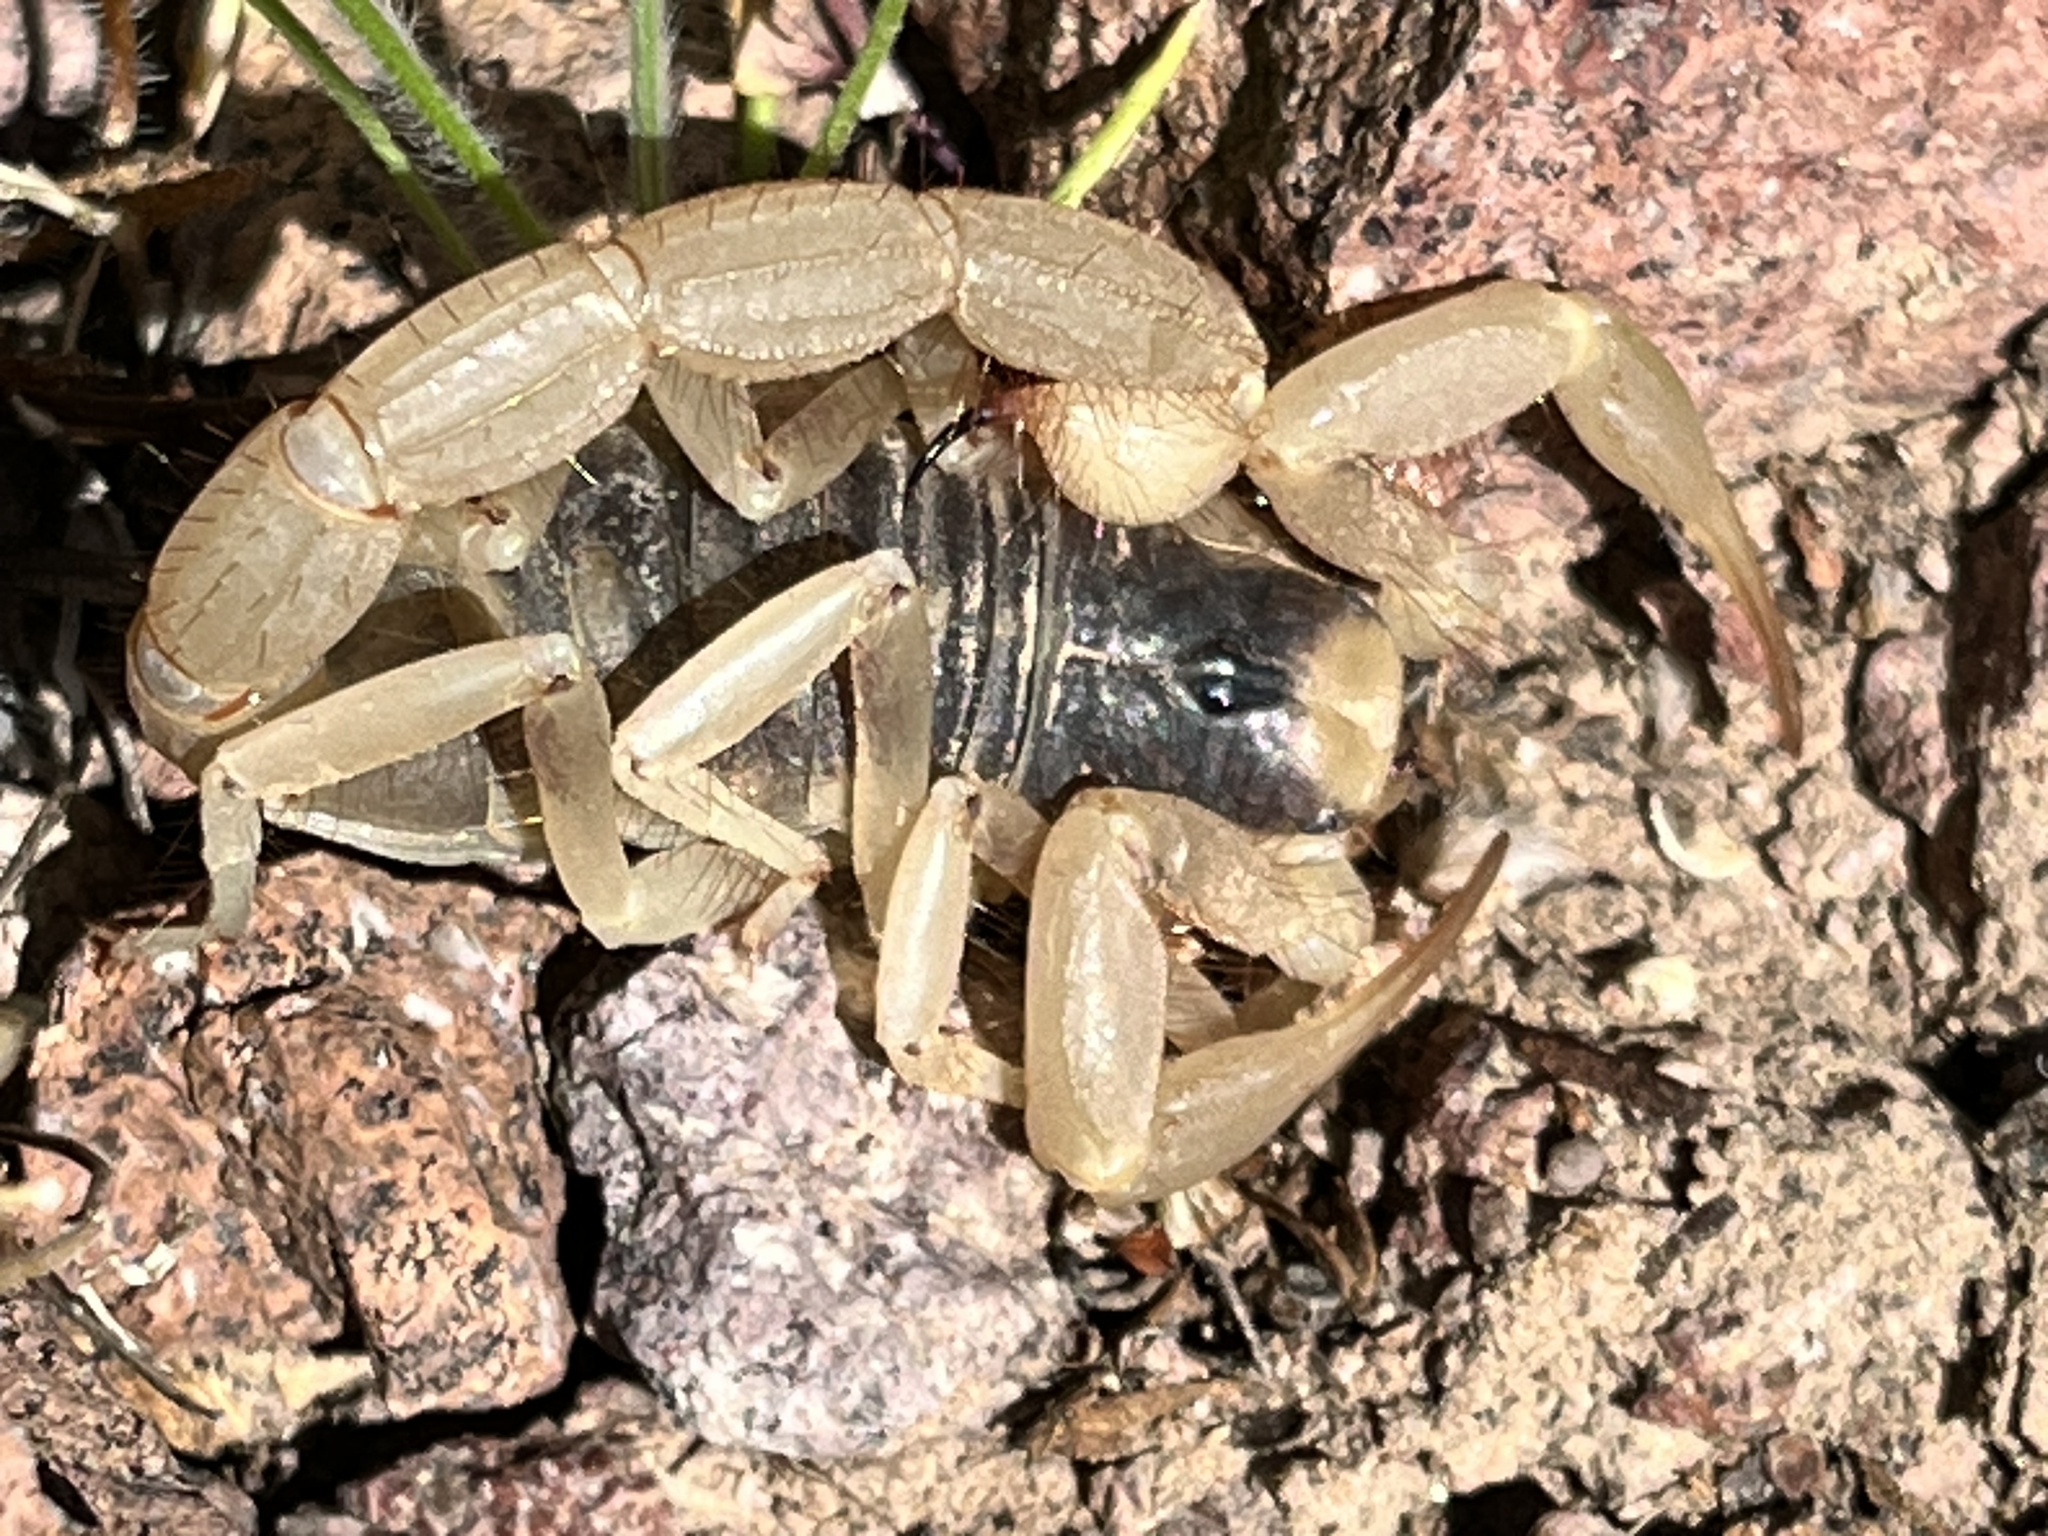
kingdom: Animalia
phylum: Arthropoda
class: Arachnida
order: Scorpiones
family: Hadruridae
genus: Hadrurus
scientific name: Hadrurus arizonensis
